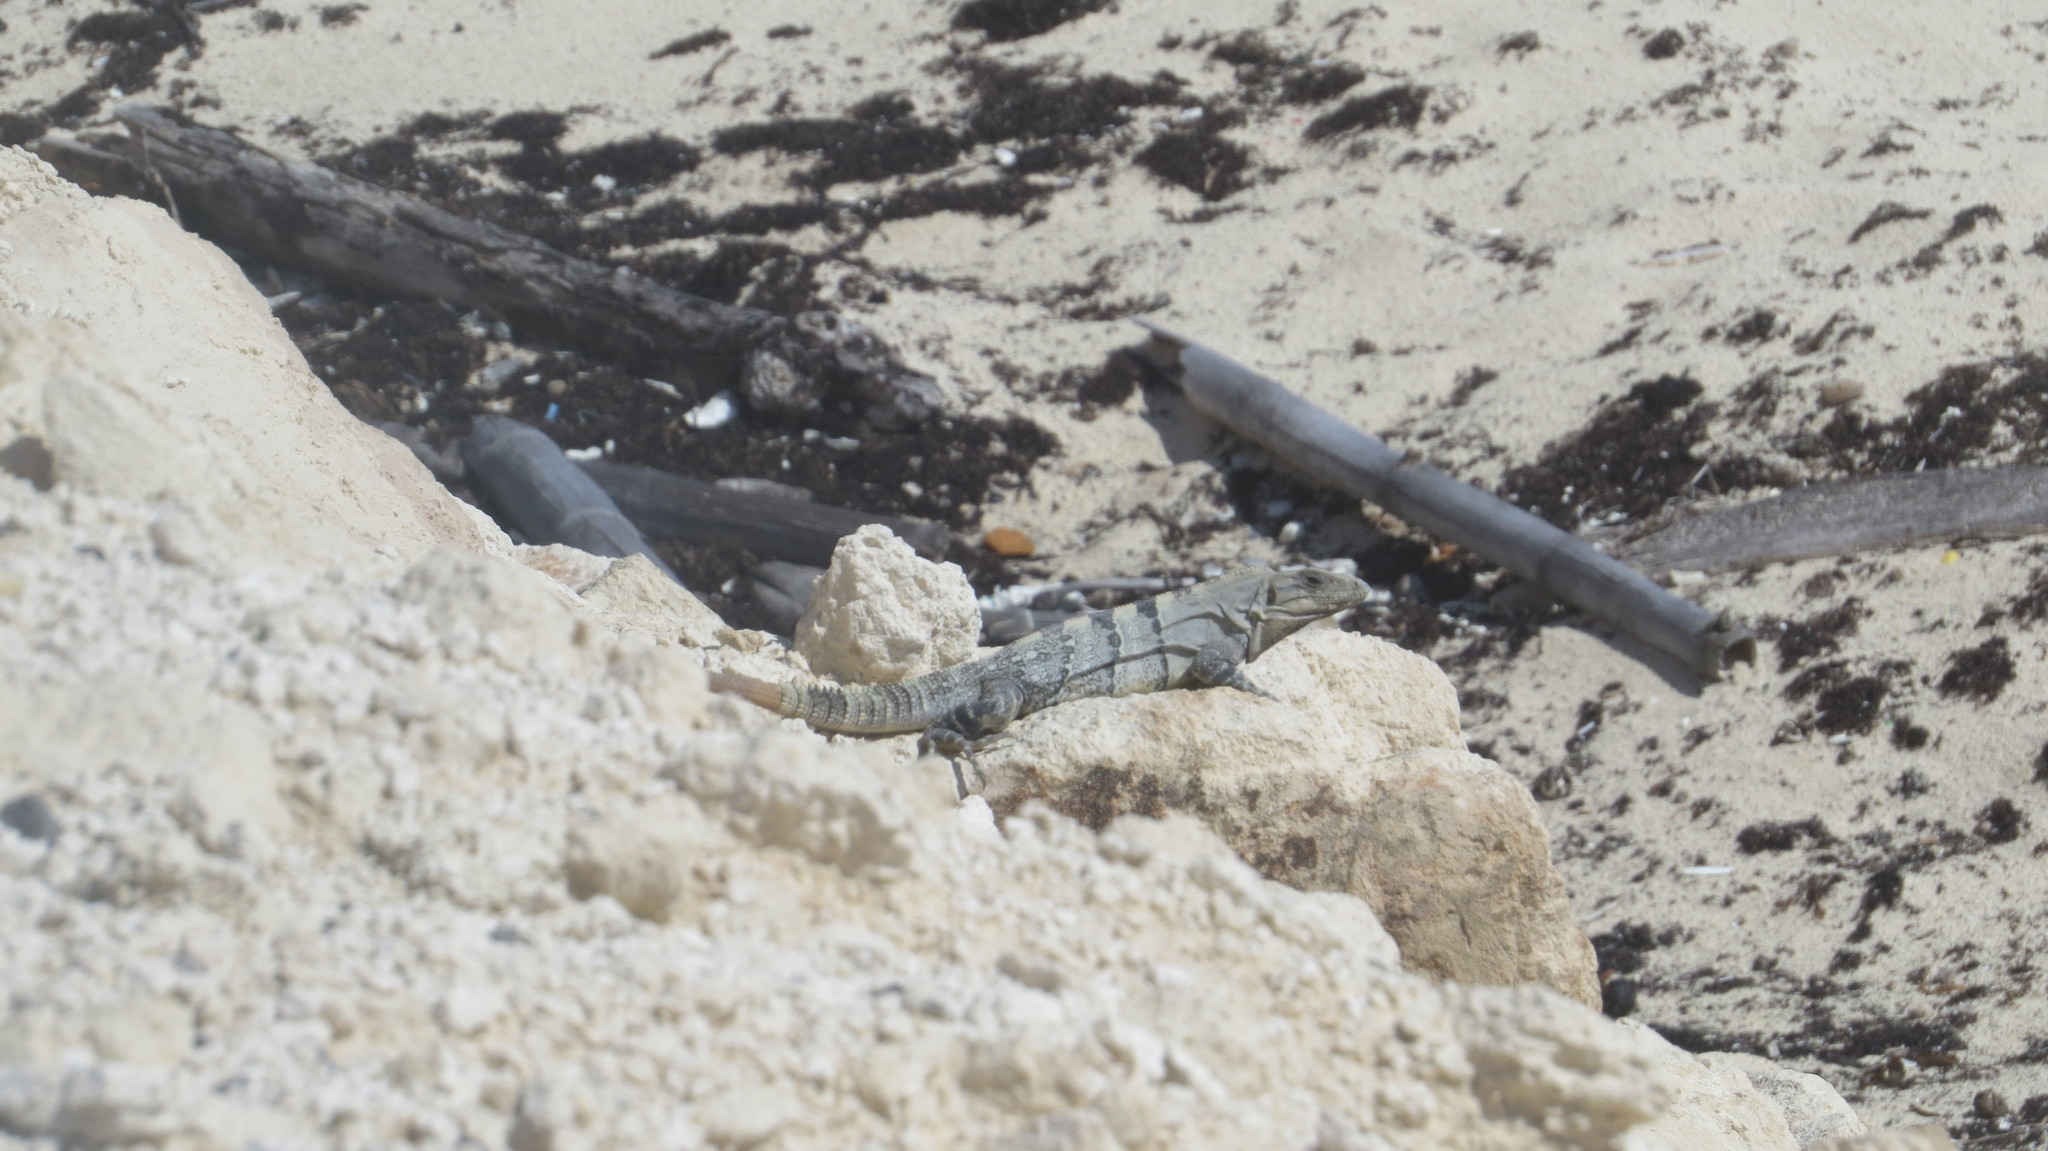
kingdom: Animalia
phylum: Chordata
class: Squamata
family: Iguanidae
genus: Ctenosaura
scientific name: Ctenosaura similis
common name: Black spiny-tailed iguana
